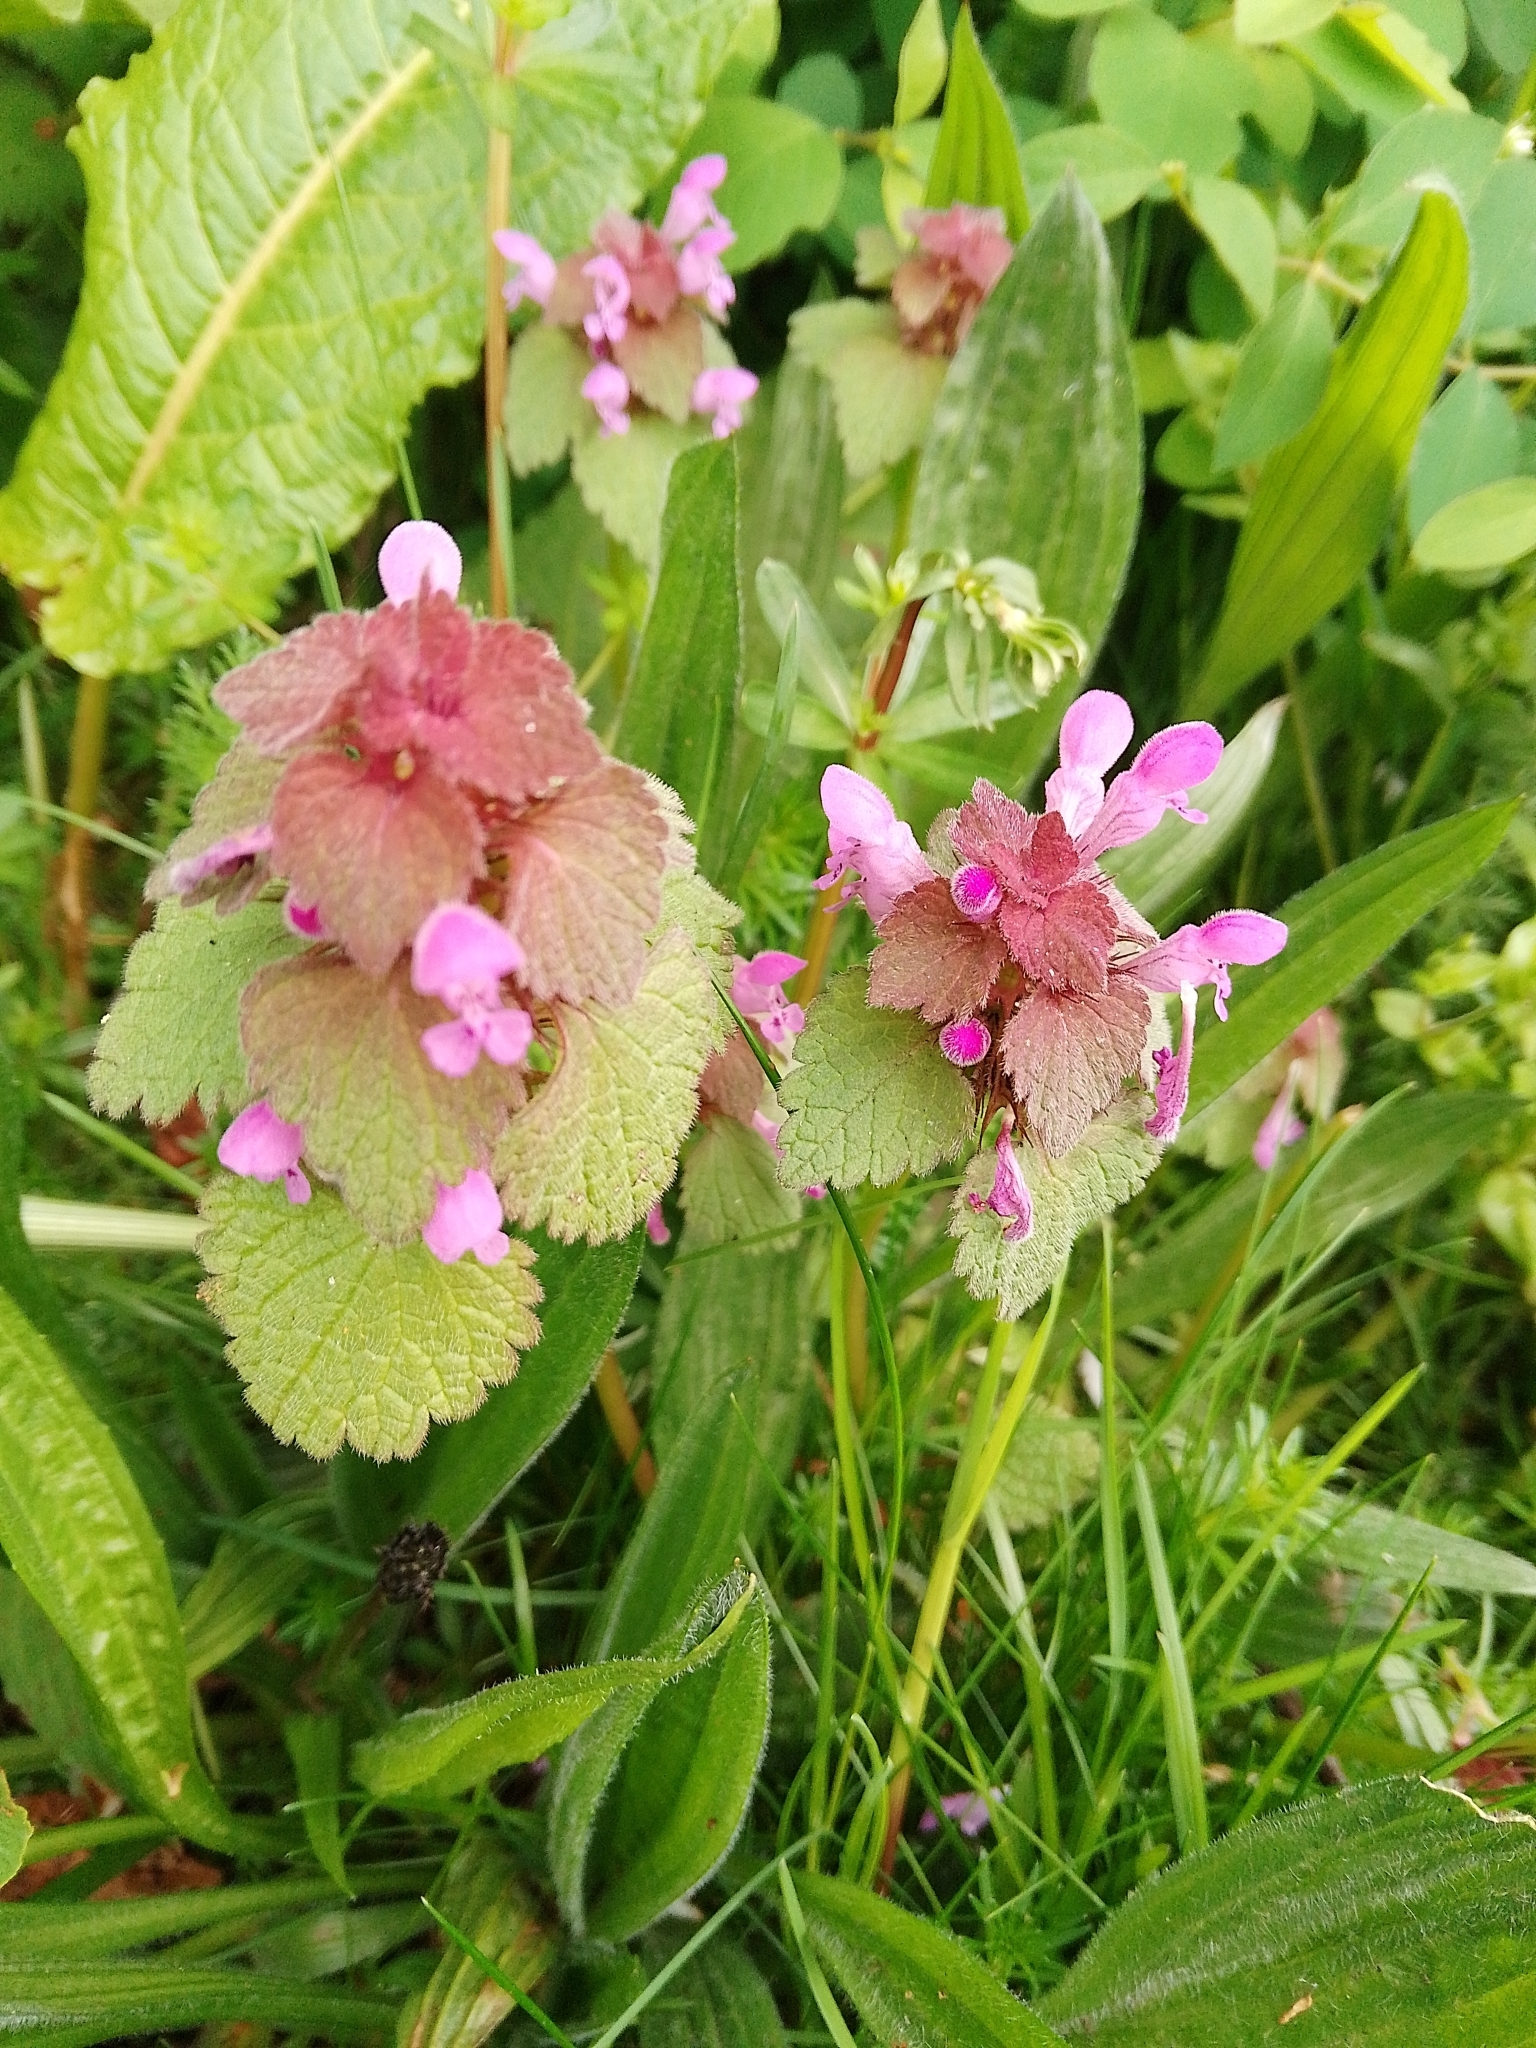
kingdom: Plantae
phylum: Tracheophyta
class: Magnoliopsida
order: Lamiales
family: Lamiaceae
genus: Lamium
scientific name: Lamium purpureum
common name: Red dead-nettle
